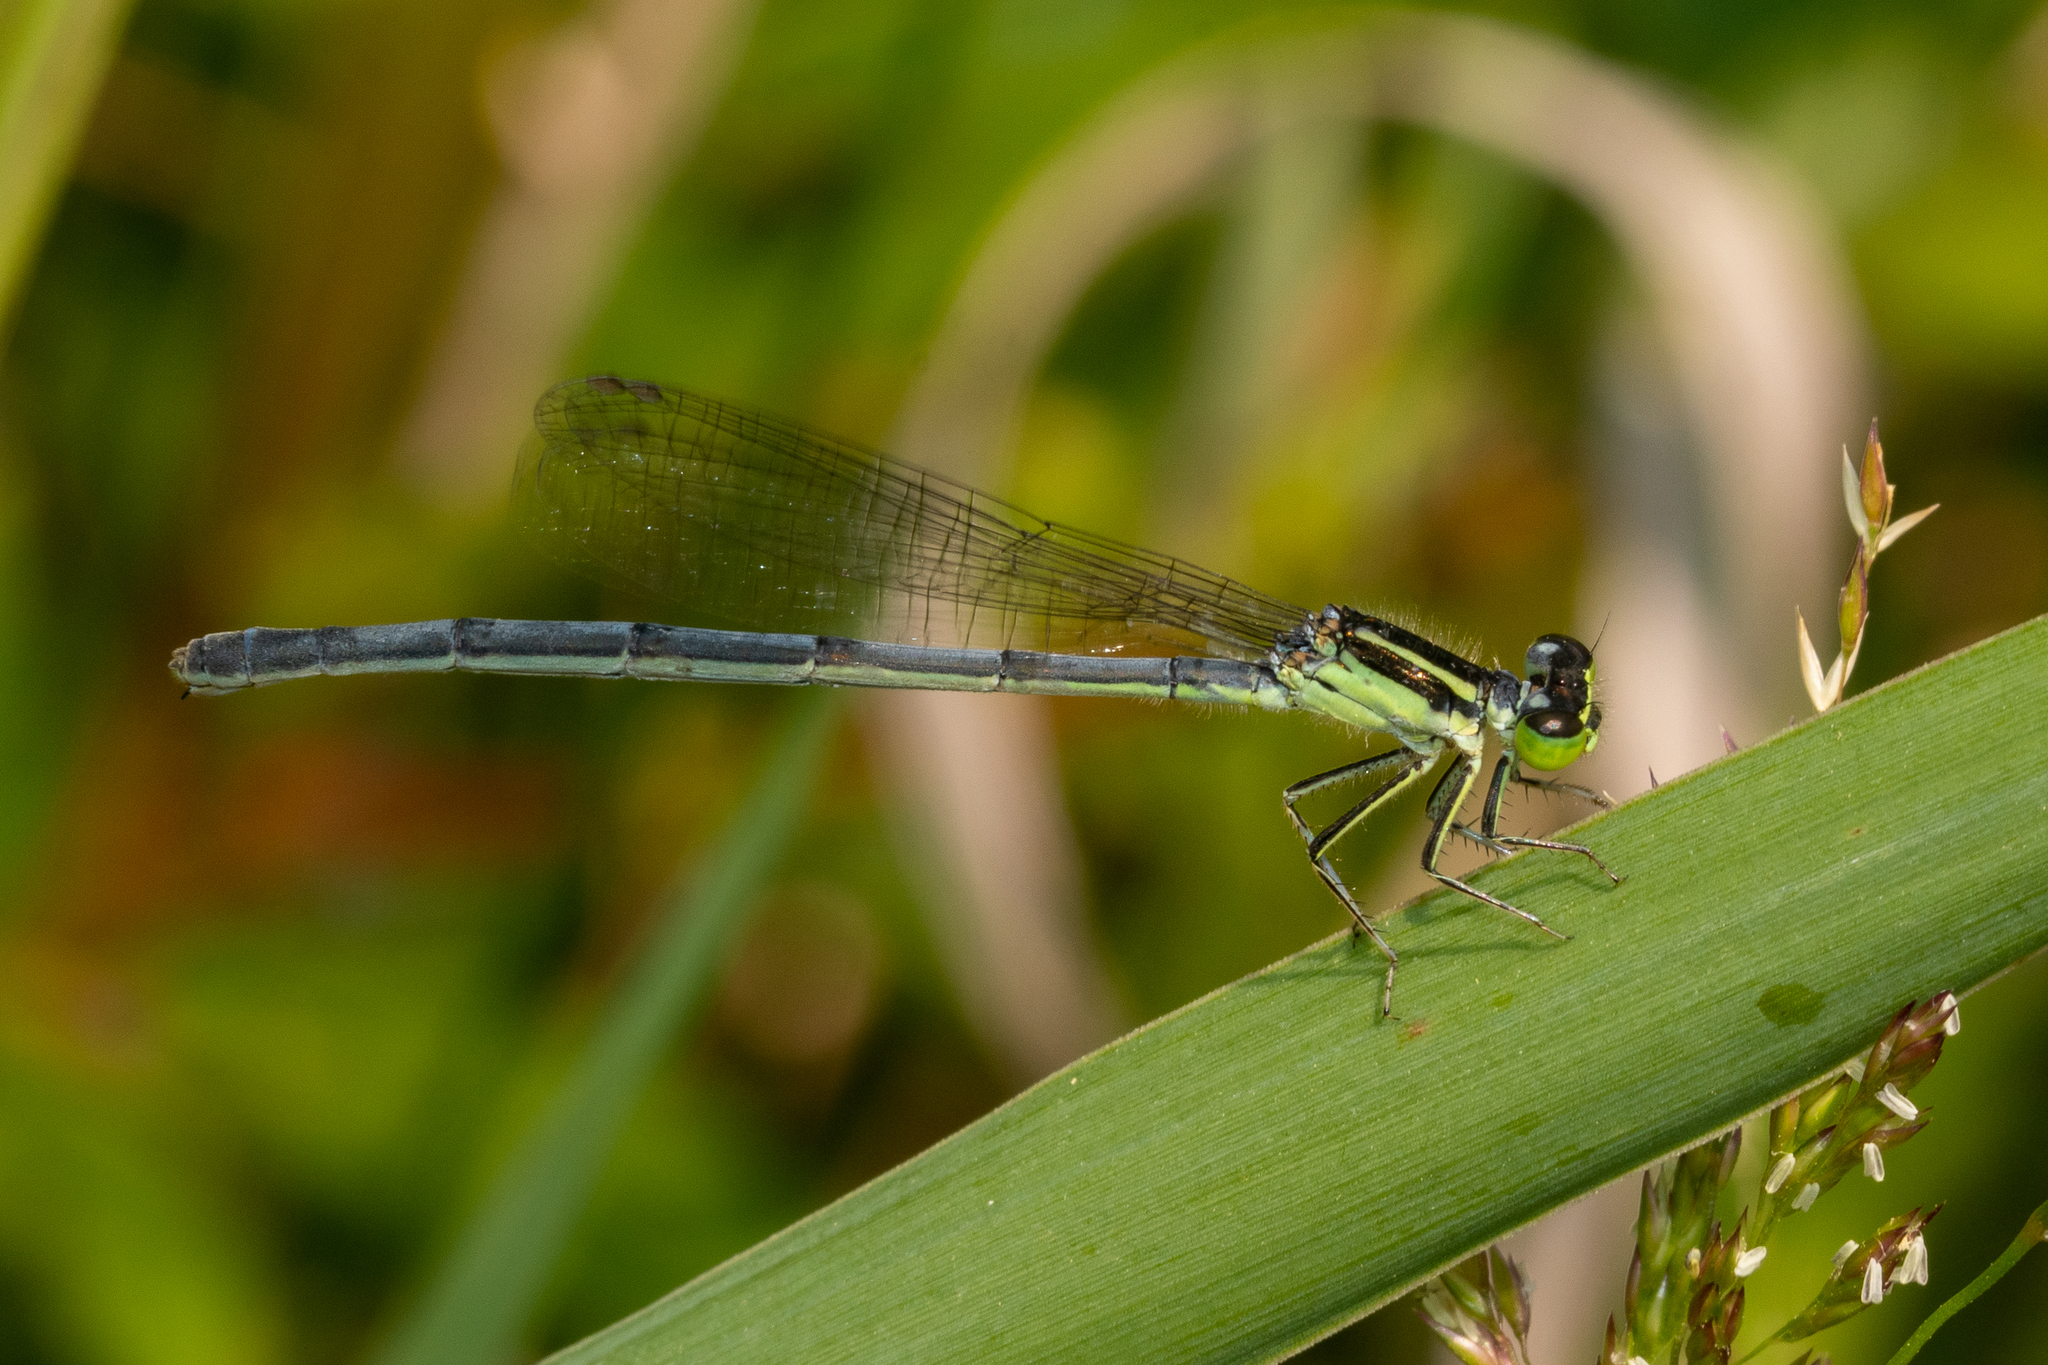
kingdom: Animalia
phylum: Arthropoda
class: Insecta
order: Odonata
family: Coenagrionidae
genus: Ischnura
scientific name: Ischnura verticalis
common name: Eastern forktail
